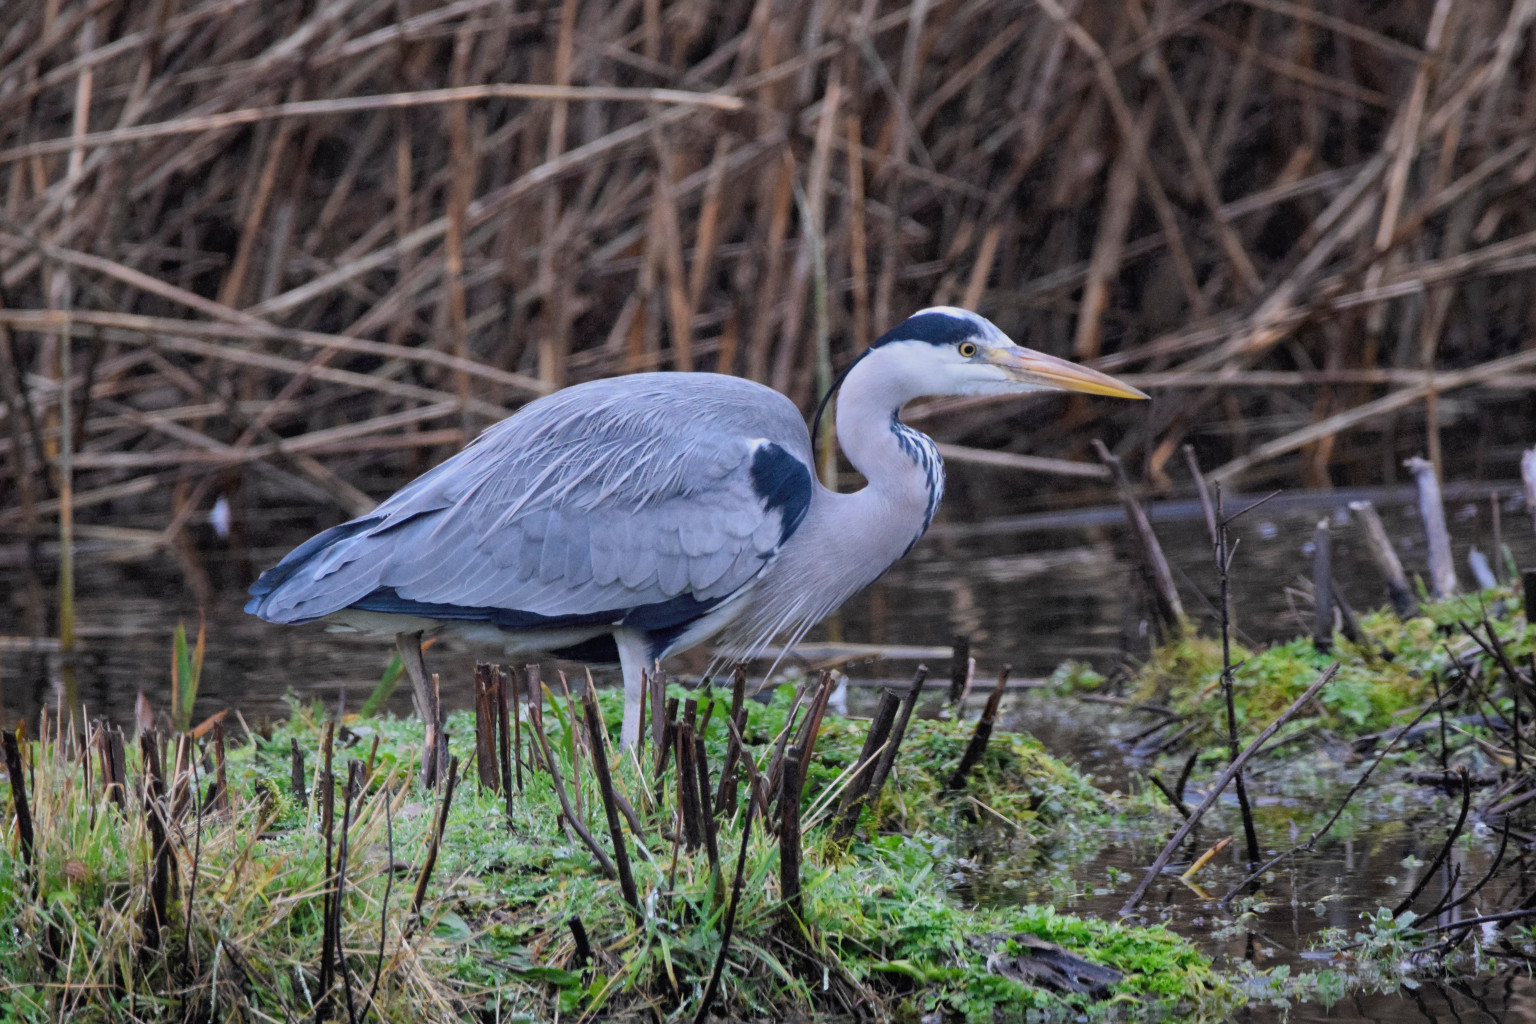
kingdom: Animalia
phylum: Chordata
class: Aves
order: Pelecaniformes
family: Ardeidae
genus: Ardea
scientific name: Ardea cinerea
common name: Grey heron
